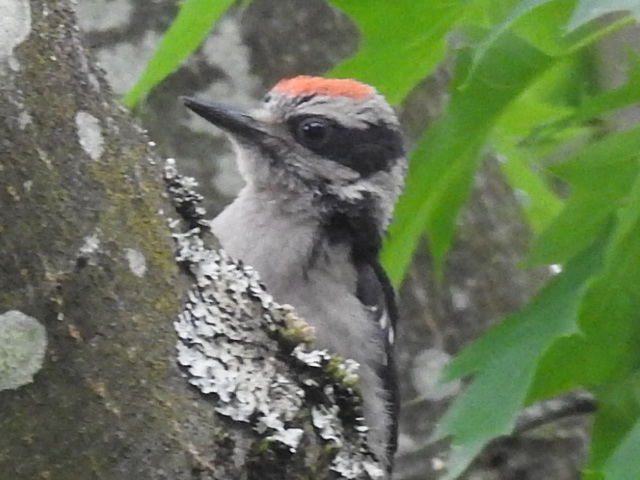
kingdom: Animalia
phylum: Chordata
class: Aves
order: Piciformes
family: Picidae
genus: Leuconotopicus
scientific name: Leuconotopicus villosus
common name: Hairy woodpecker
